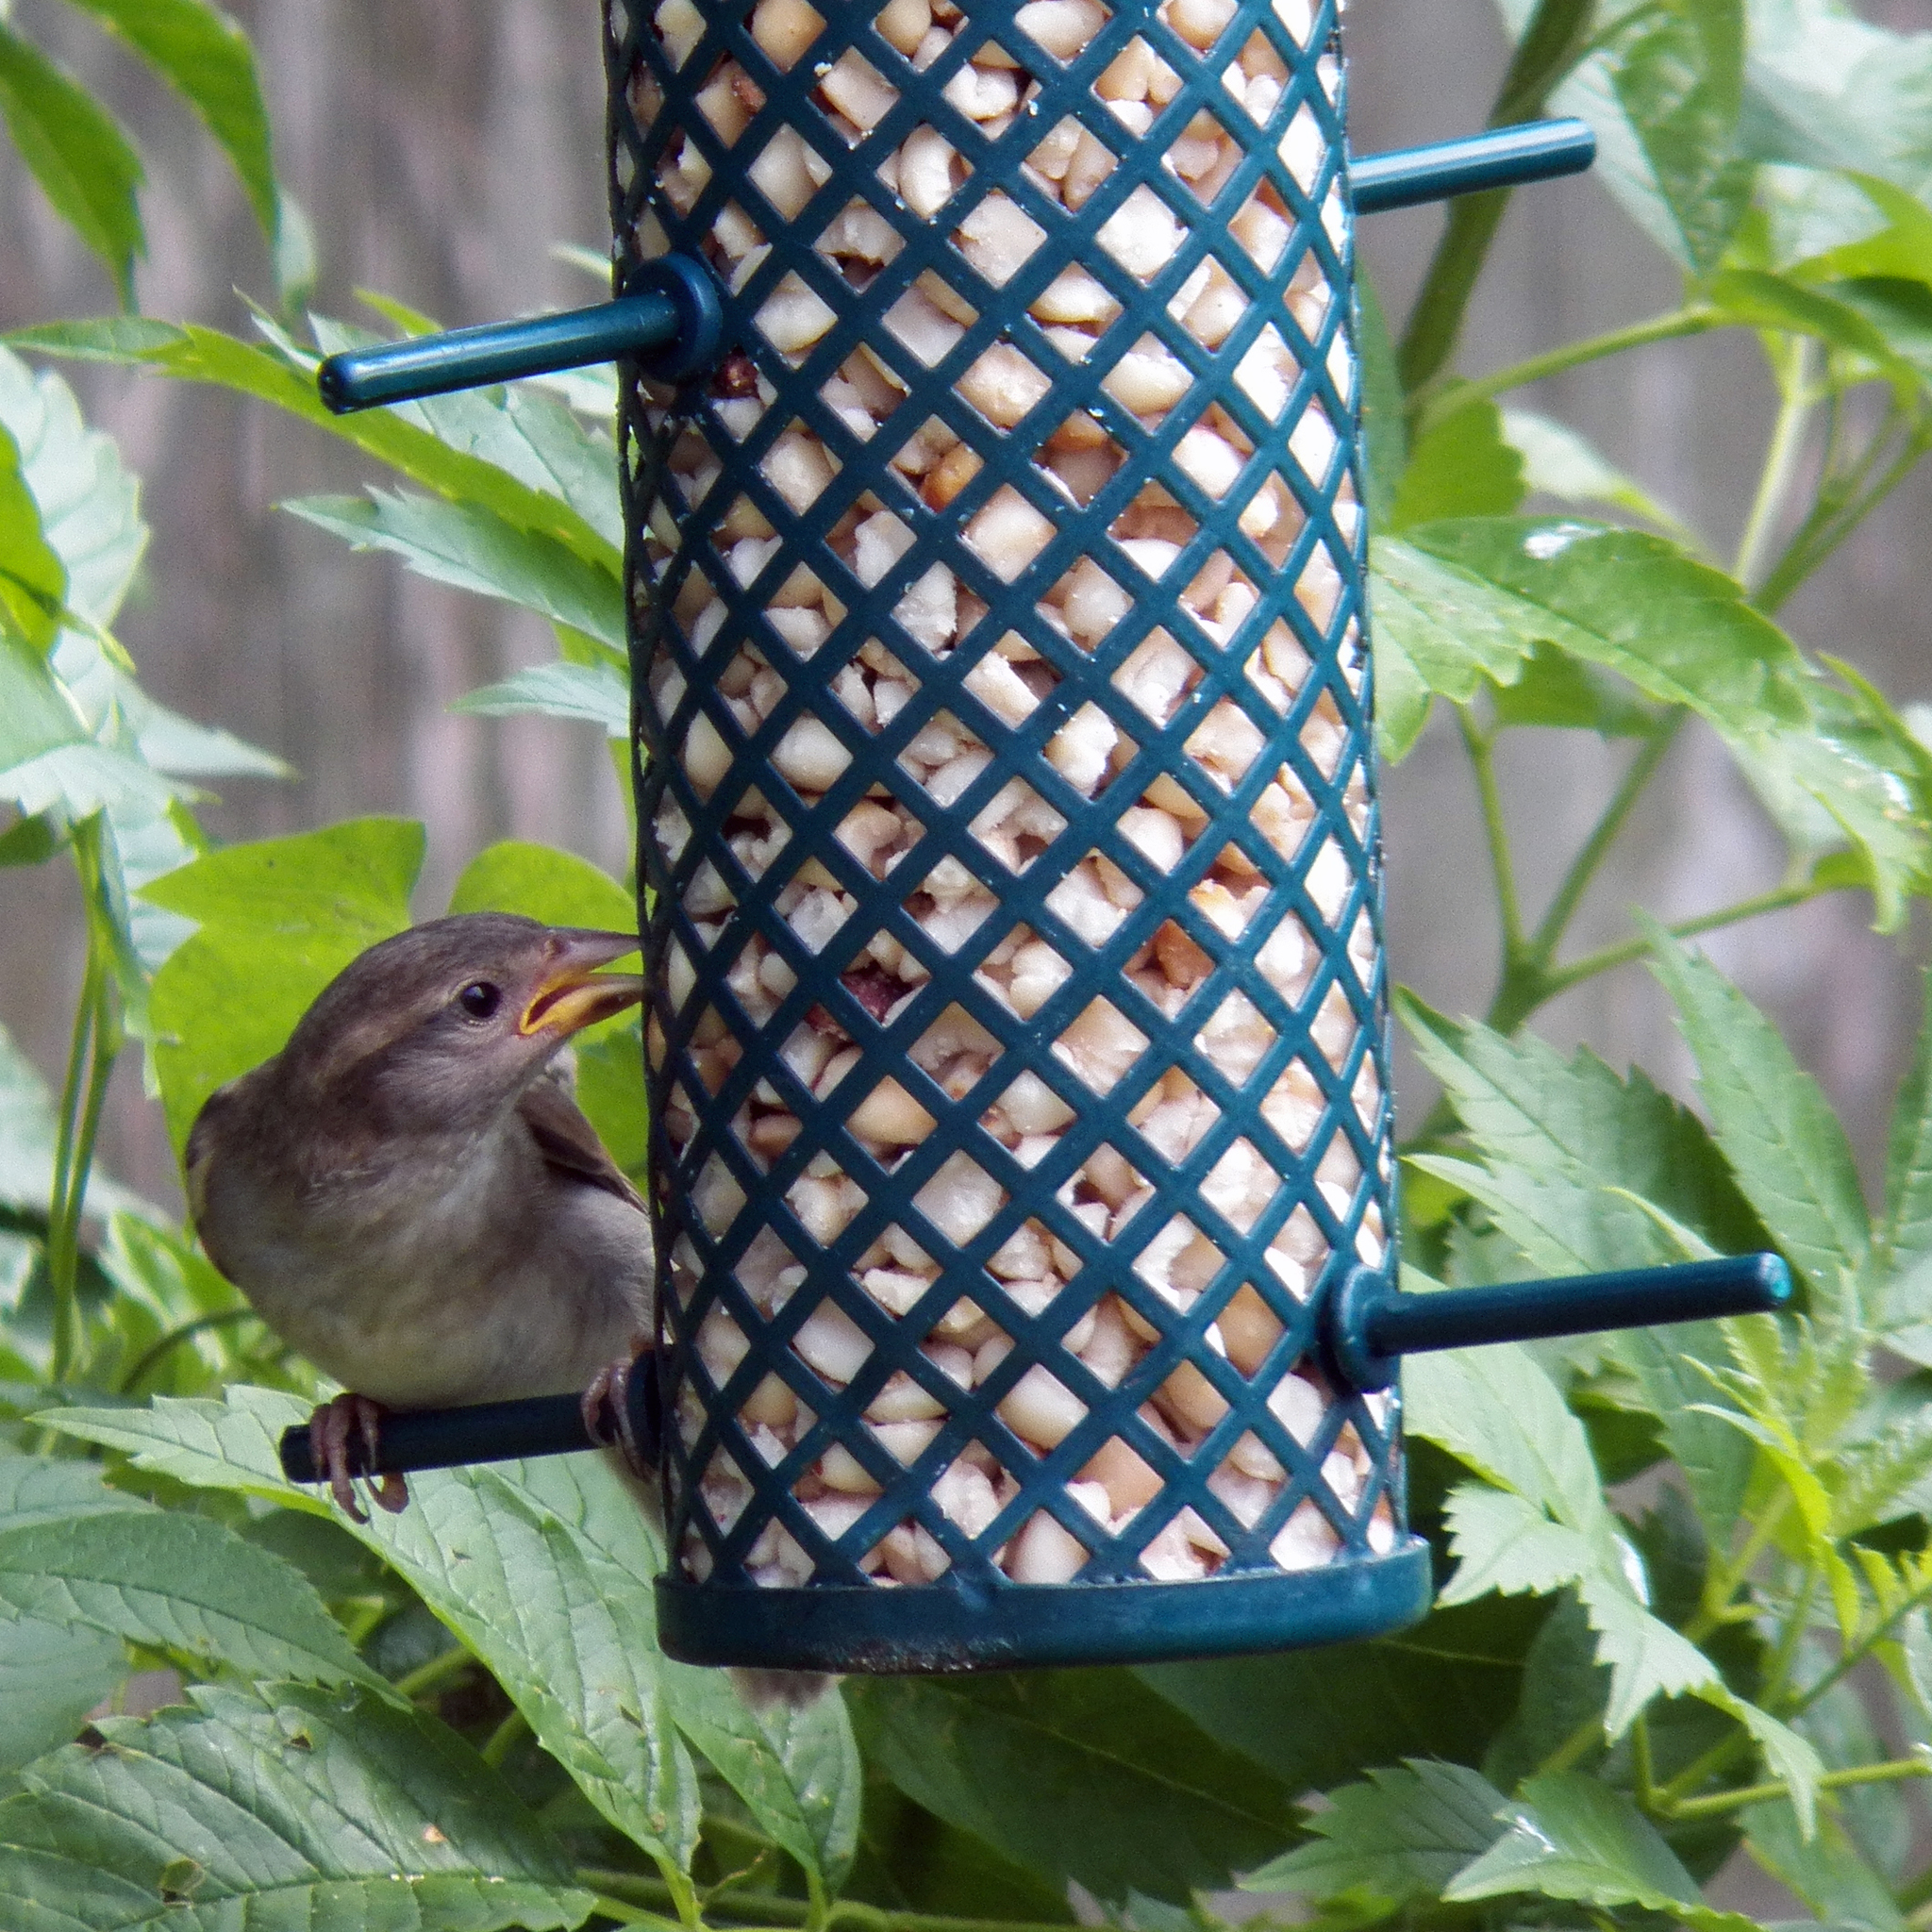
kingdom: Animalia
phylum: Chordata
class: Aves
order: Passeriformes
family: Passeridae
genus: Passer
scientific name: Passer domesticus
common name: House sparrow
